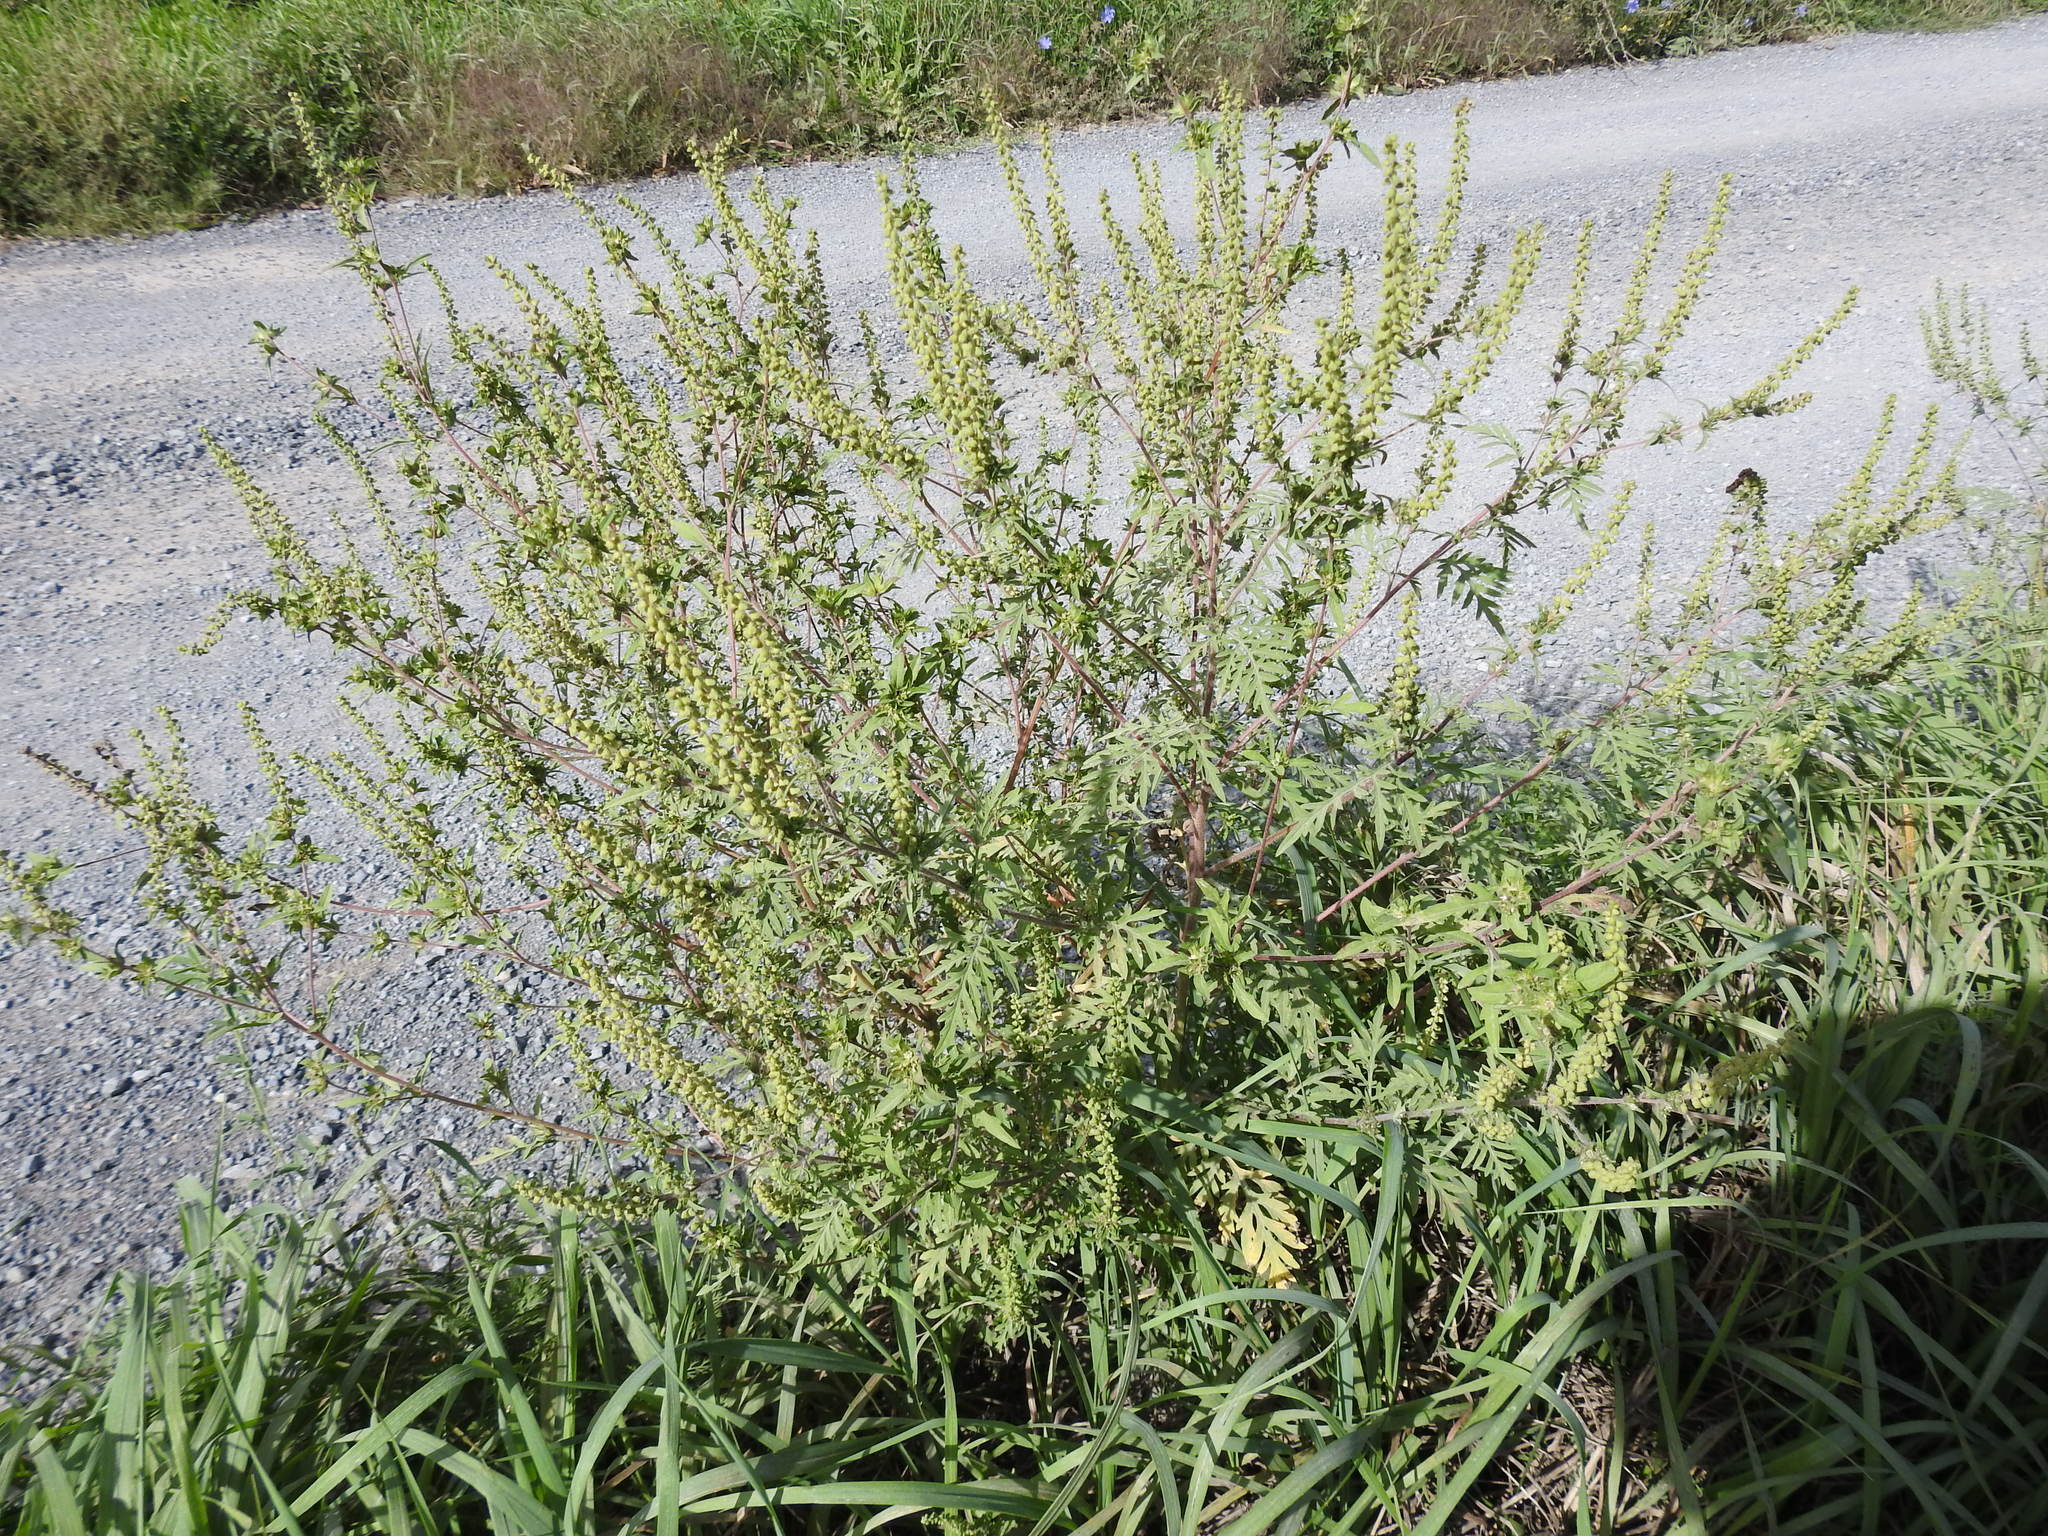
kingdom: Plantae
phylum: Tracheophyta
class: Magnoliopsida
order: Asterales
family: Asteraceae
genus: Ambrosia
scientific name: Ambrosia artemisiifolia
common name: Annual ragweed
